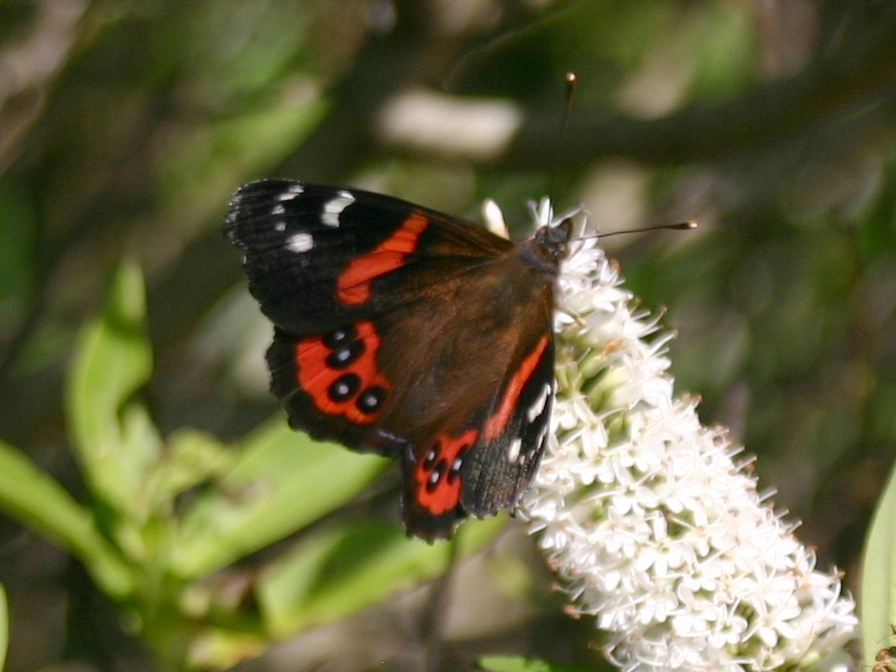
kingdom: Animalia
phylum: Arthropoda
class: Insecta
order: Lepidoptera
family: Nymphalidae
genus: Vanessa
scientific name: Vanessa gonerilla
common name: New zealand red admiral
